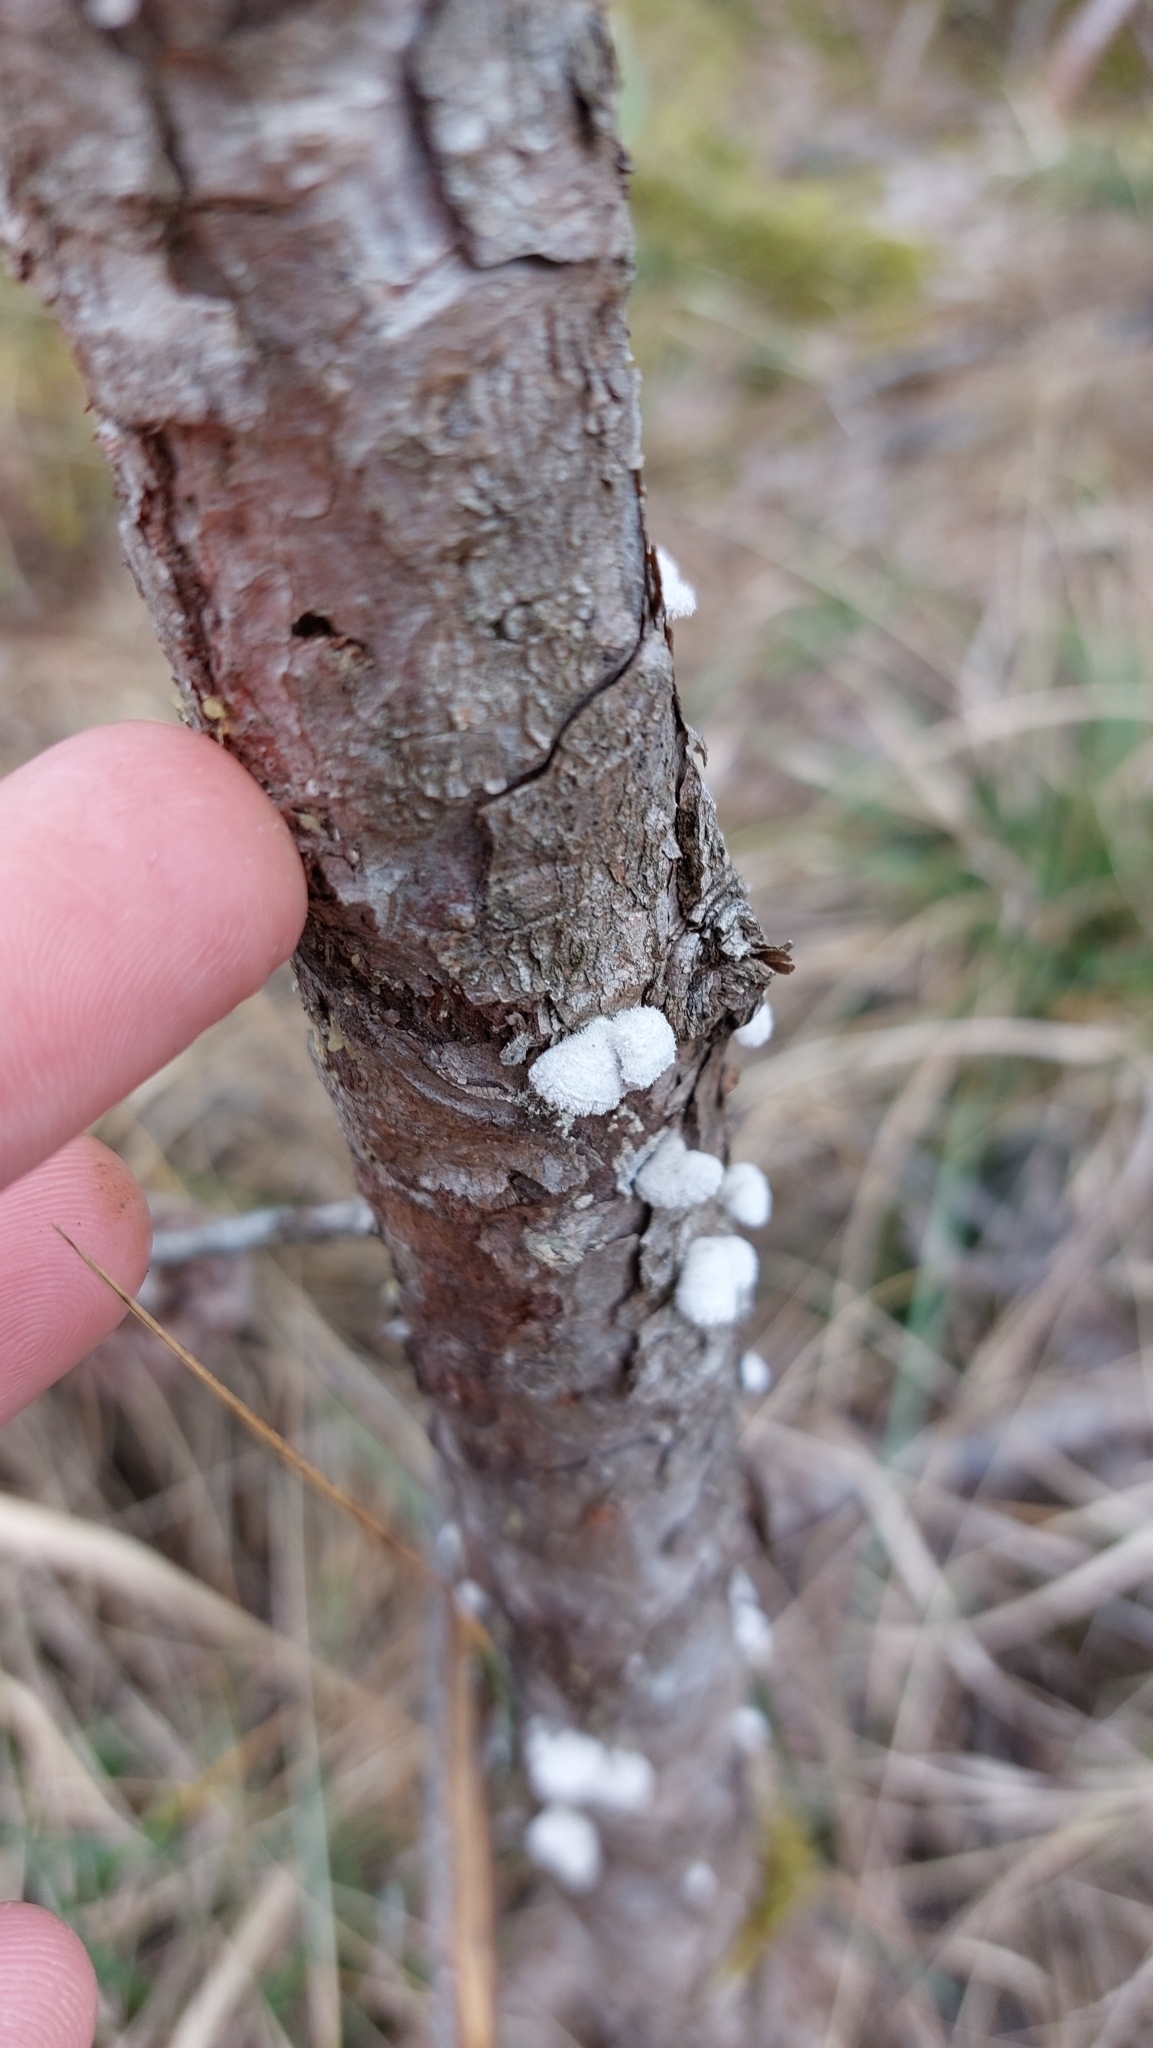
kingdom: Fungi
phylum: Basidiomycota
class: Agaricomycetes
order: Agaricales
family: Schizophyllaceae
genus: Schizophyllum
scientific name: Schizophyllum commune
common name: Common porecrust
